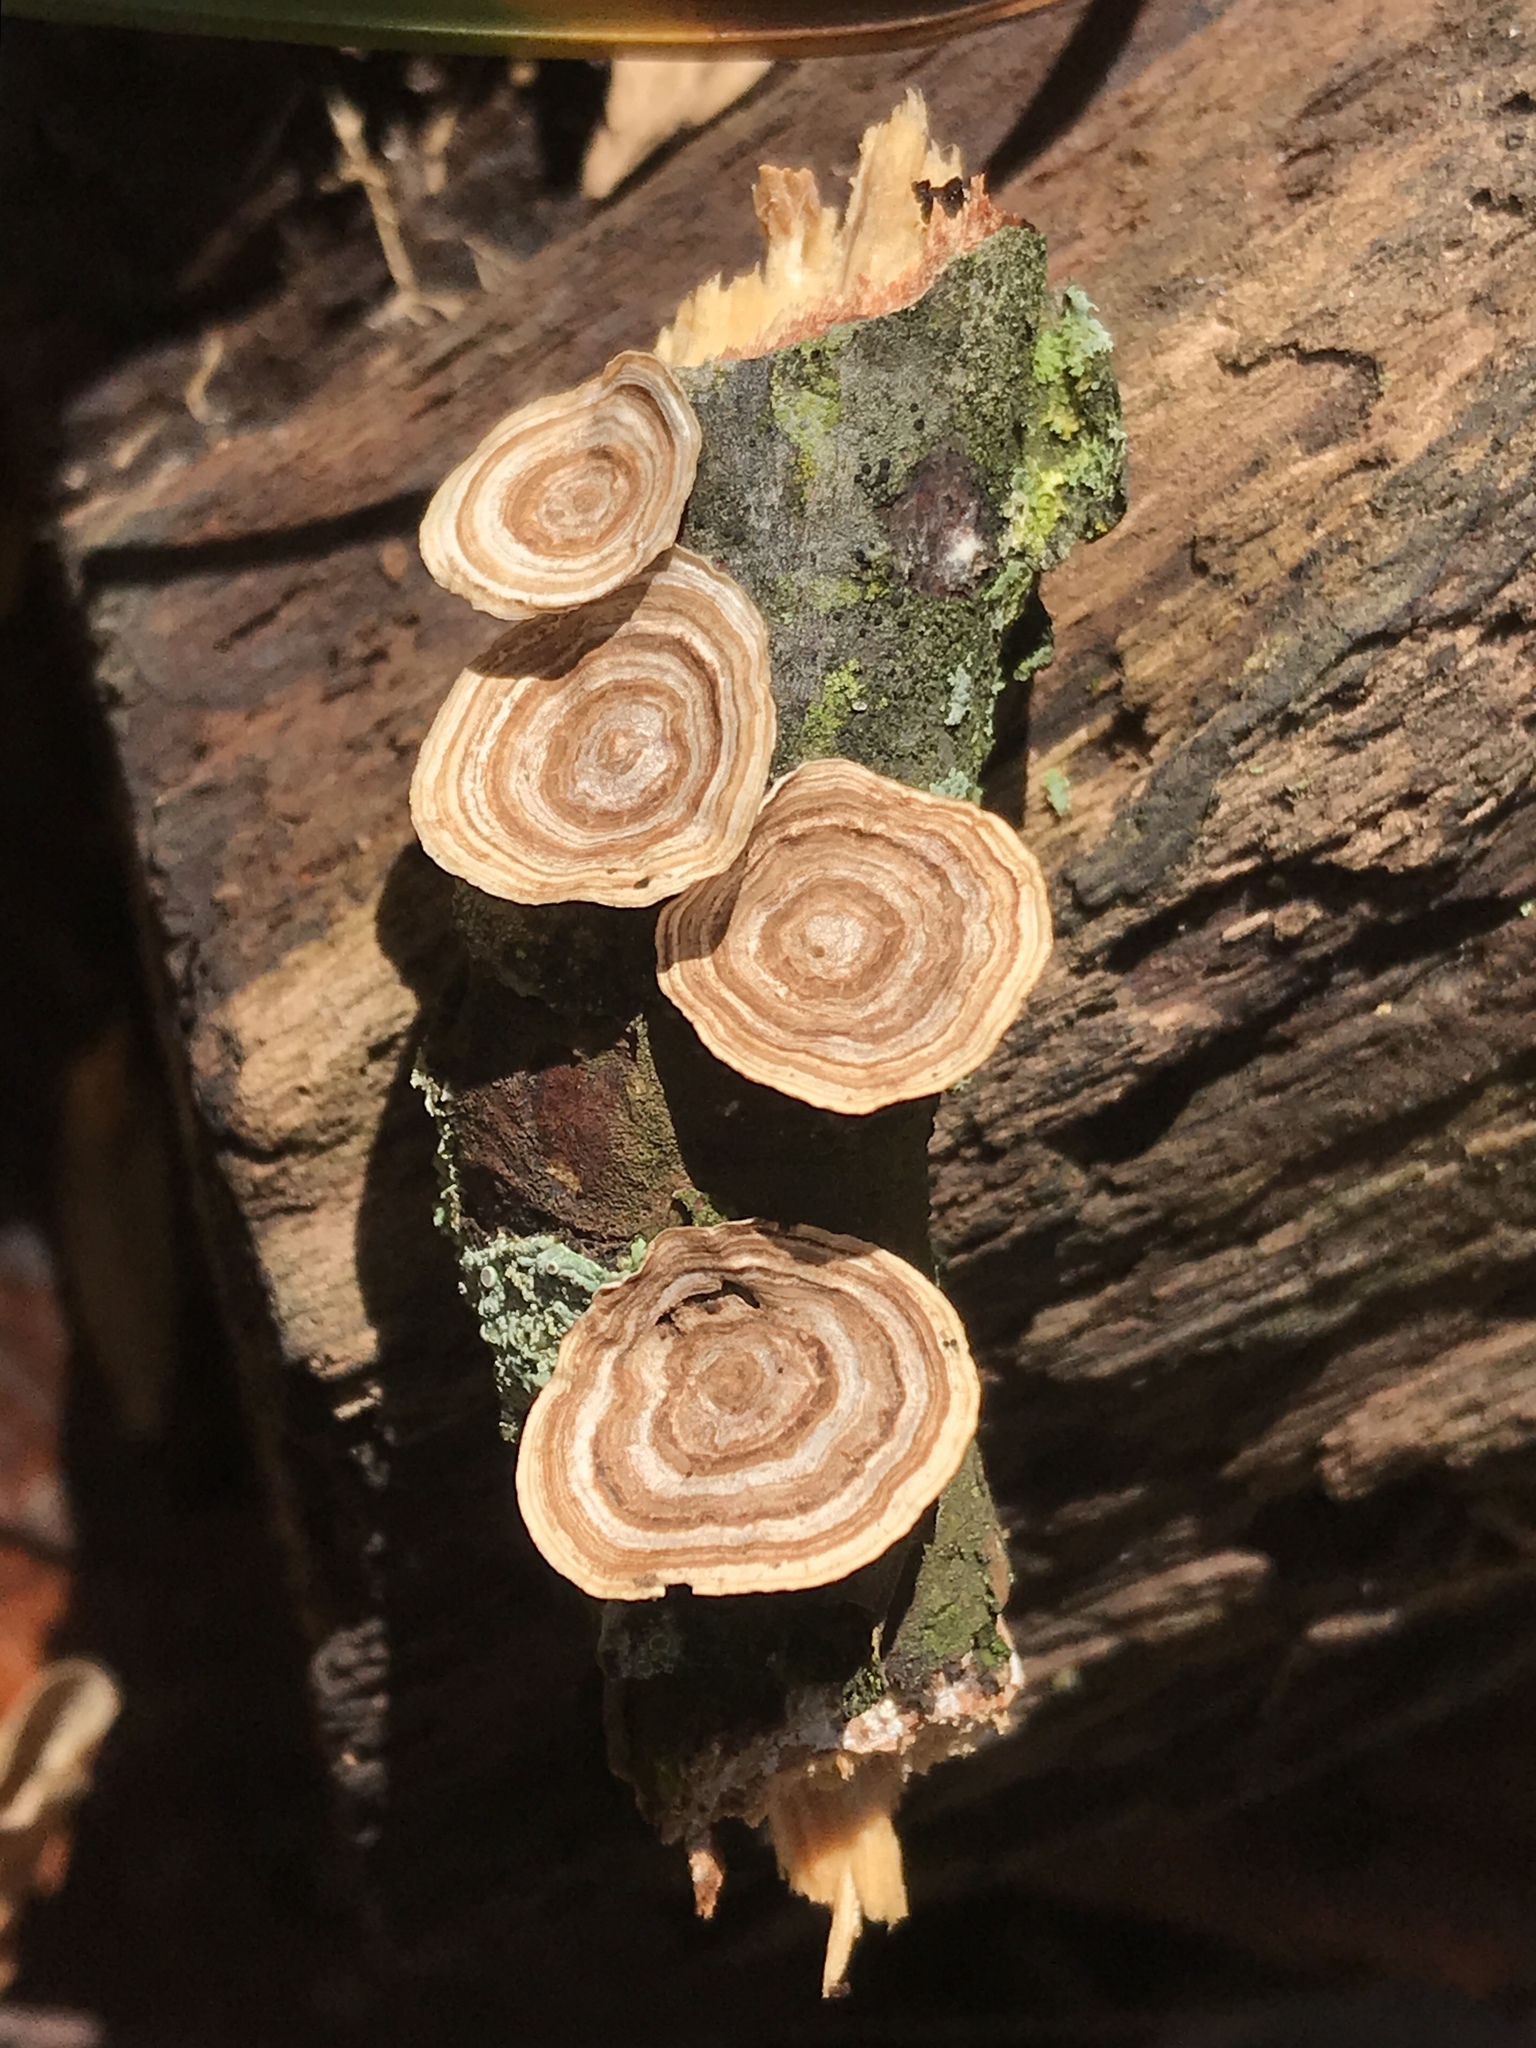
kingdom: Fungi
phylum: Basidiomycota
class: Agaricomycetes
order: Polyporales
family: Polyporaceae
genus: Poronidulus
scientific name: Poronidulus conchifer
